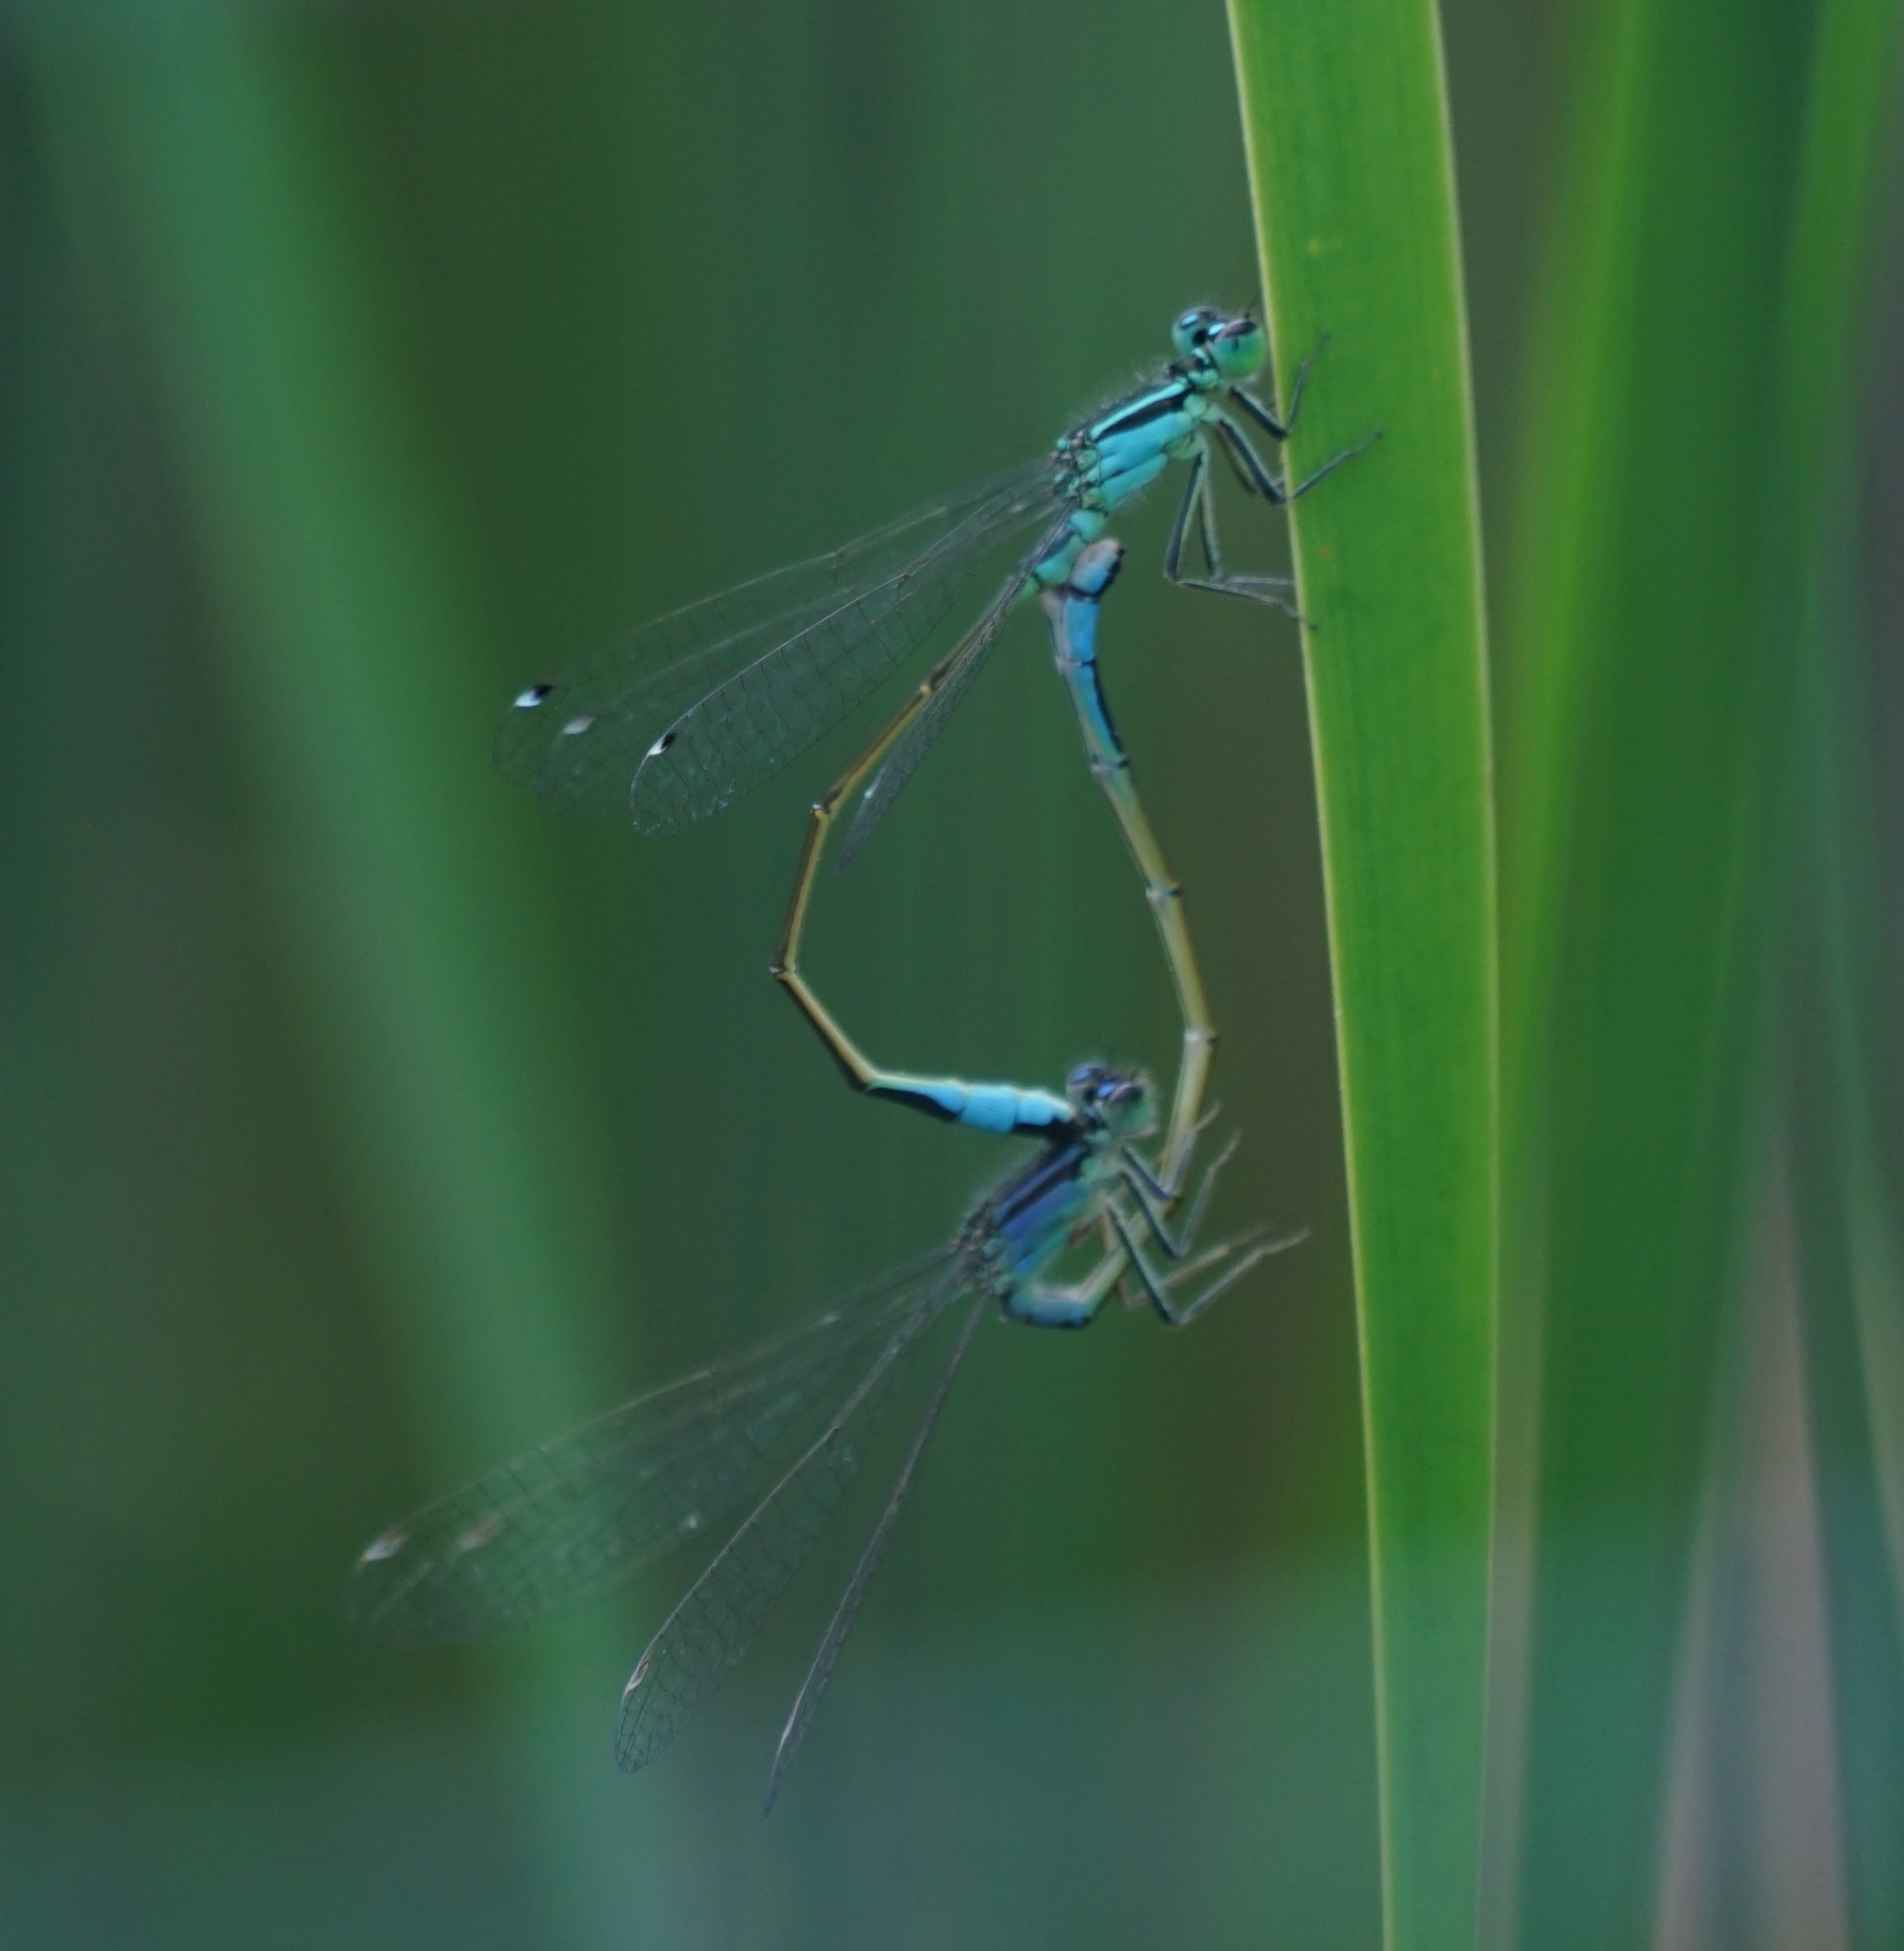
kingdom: Animalia
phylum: Arthropoda
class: Insecta
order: Odonata
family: Coenagrionidae
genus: Ischnura
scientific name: Ischnura elegans
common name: Blue-tailed damselfly
